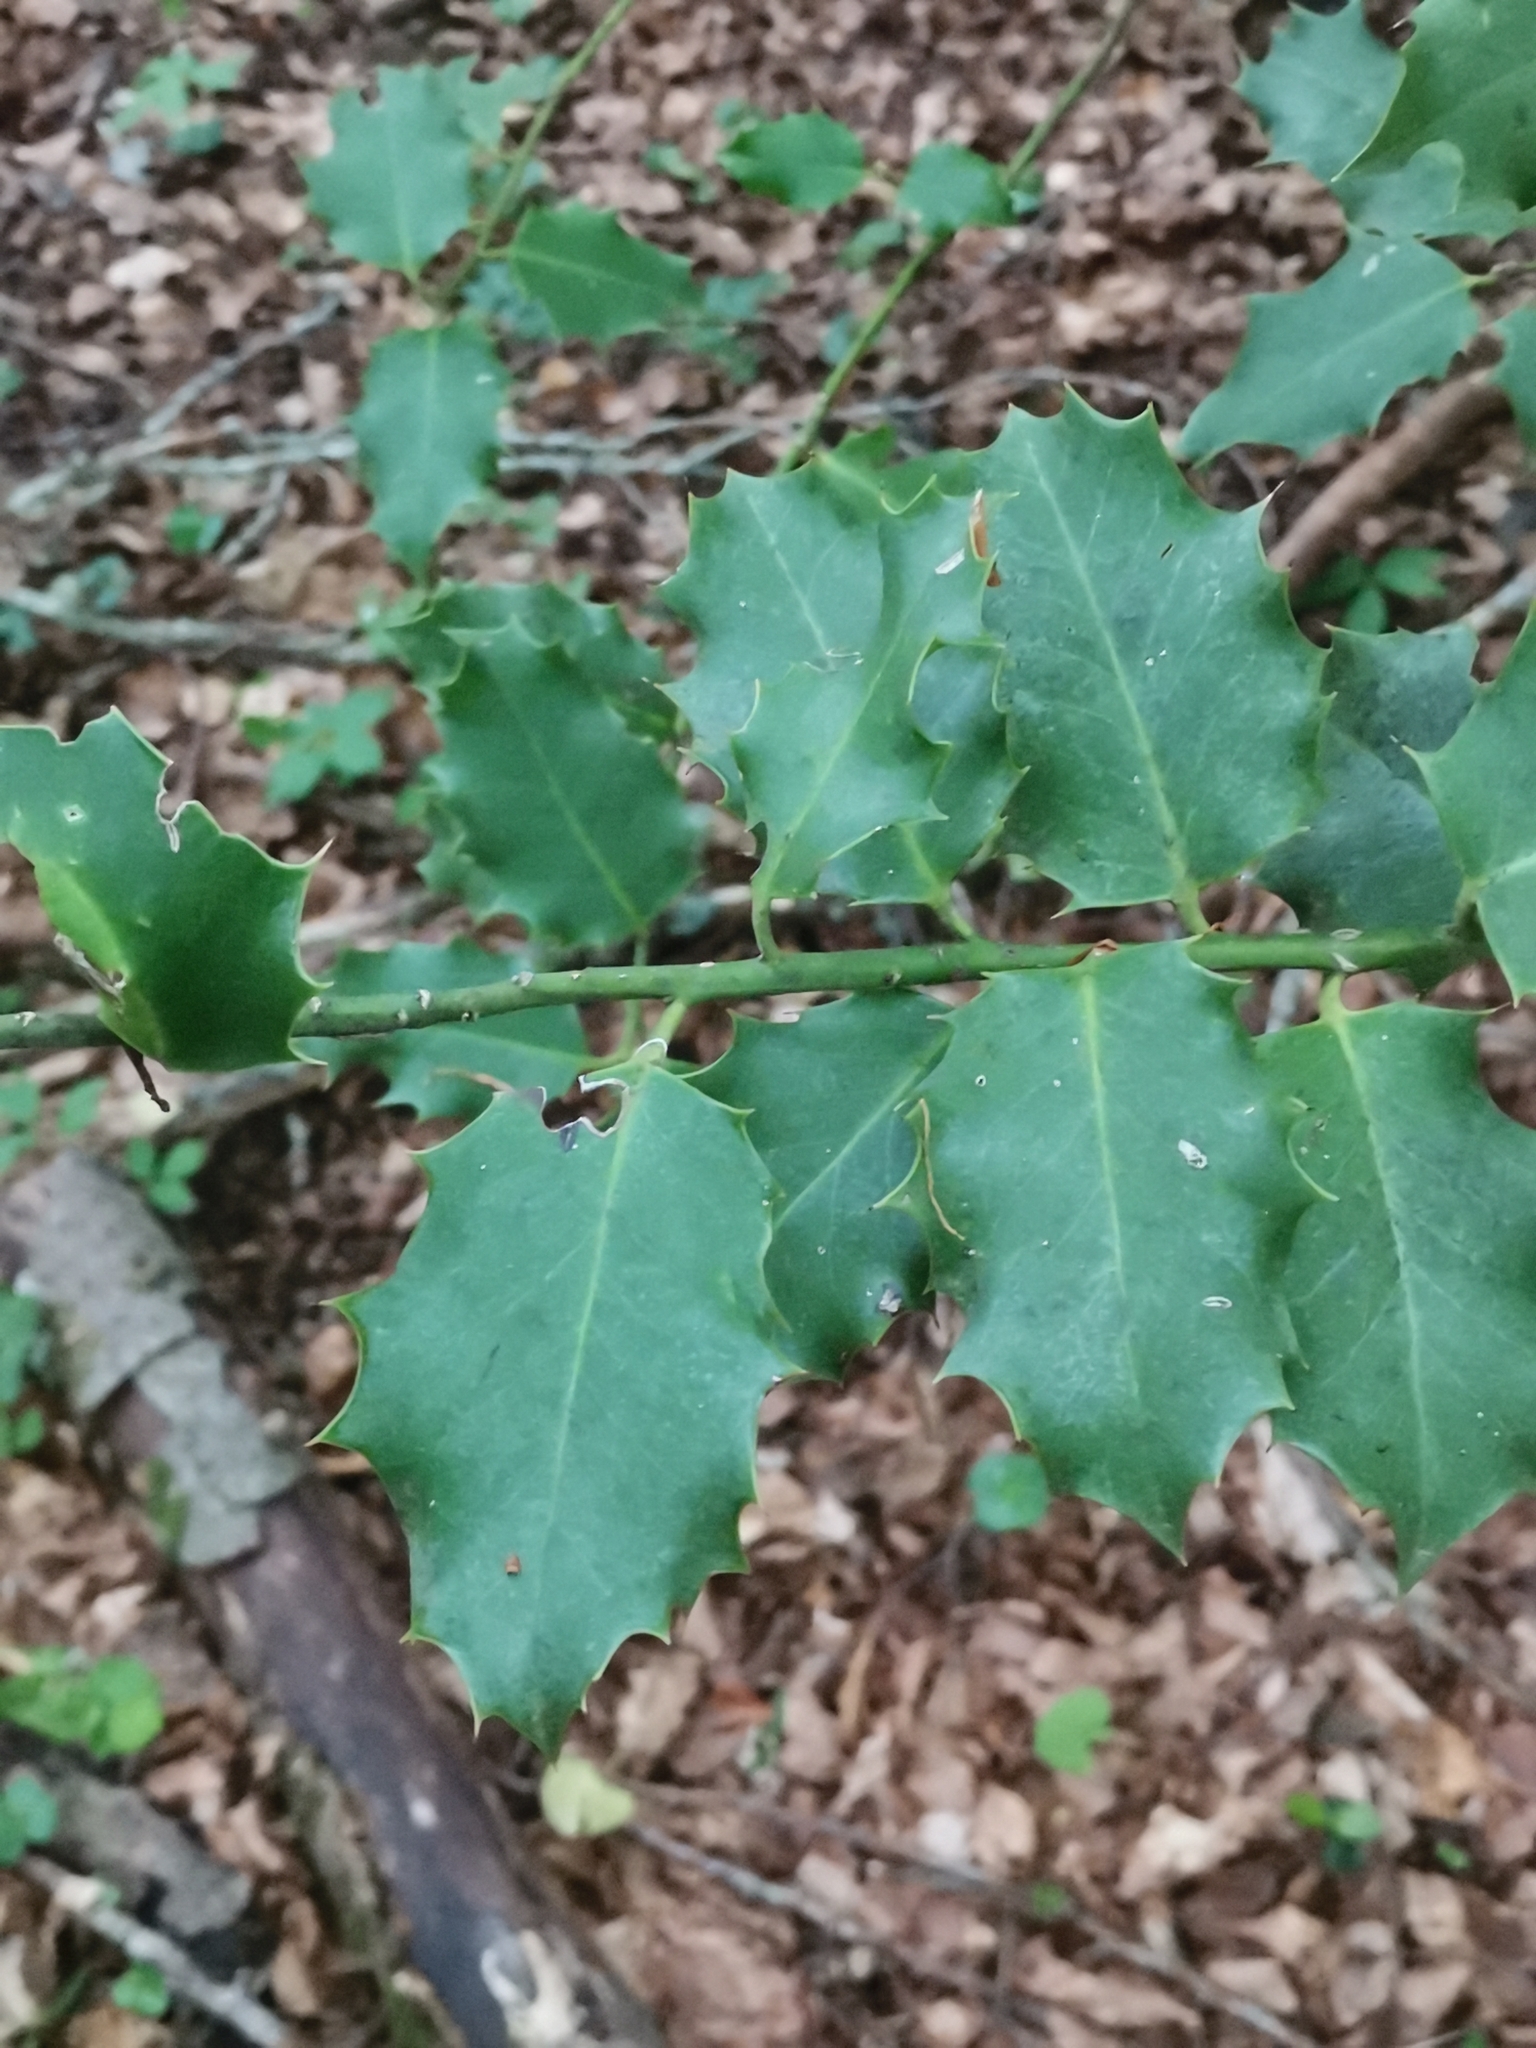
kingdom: Plantae
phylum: Tracheophyta
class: Magnoliopsida
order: Aquifoliales
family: Aquifoliaceae
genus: Ilex
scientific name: Ilex aquifolium
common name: English holly
